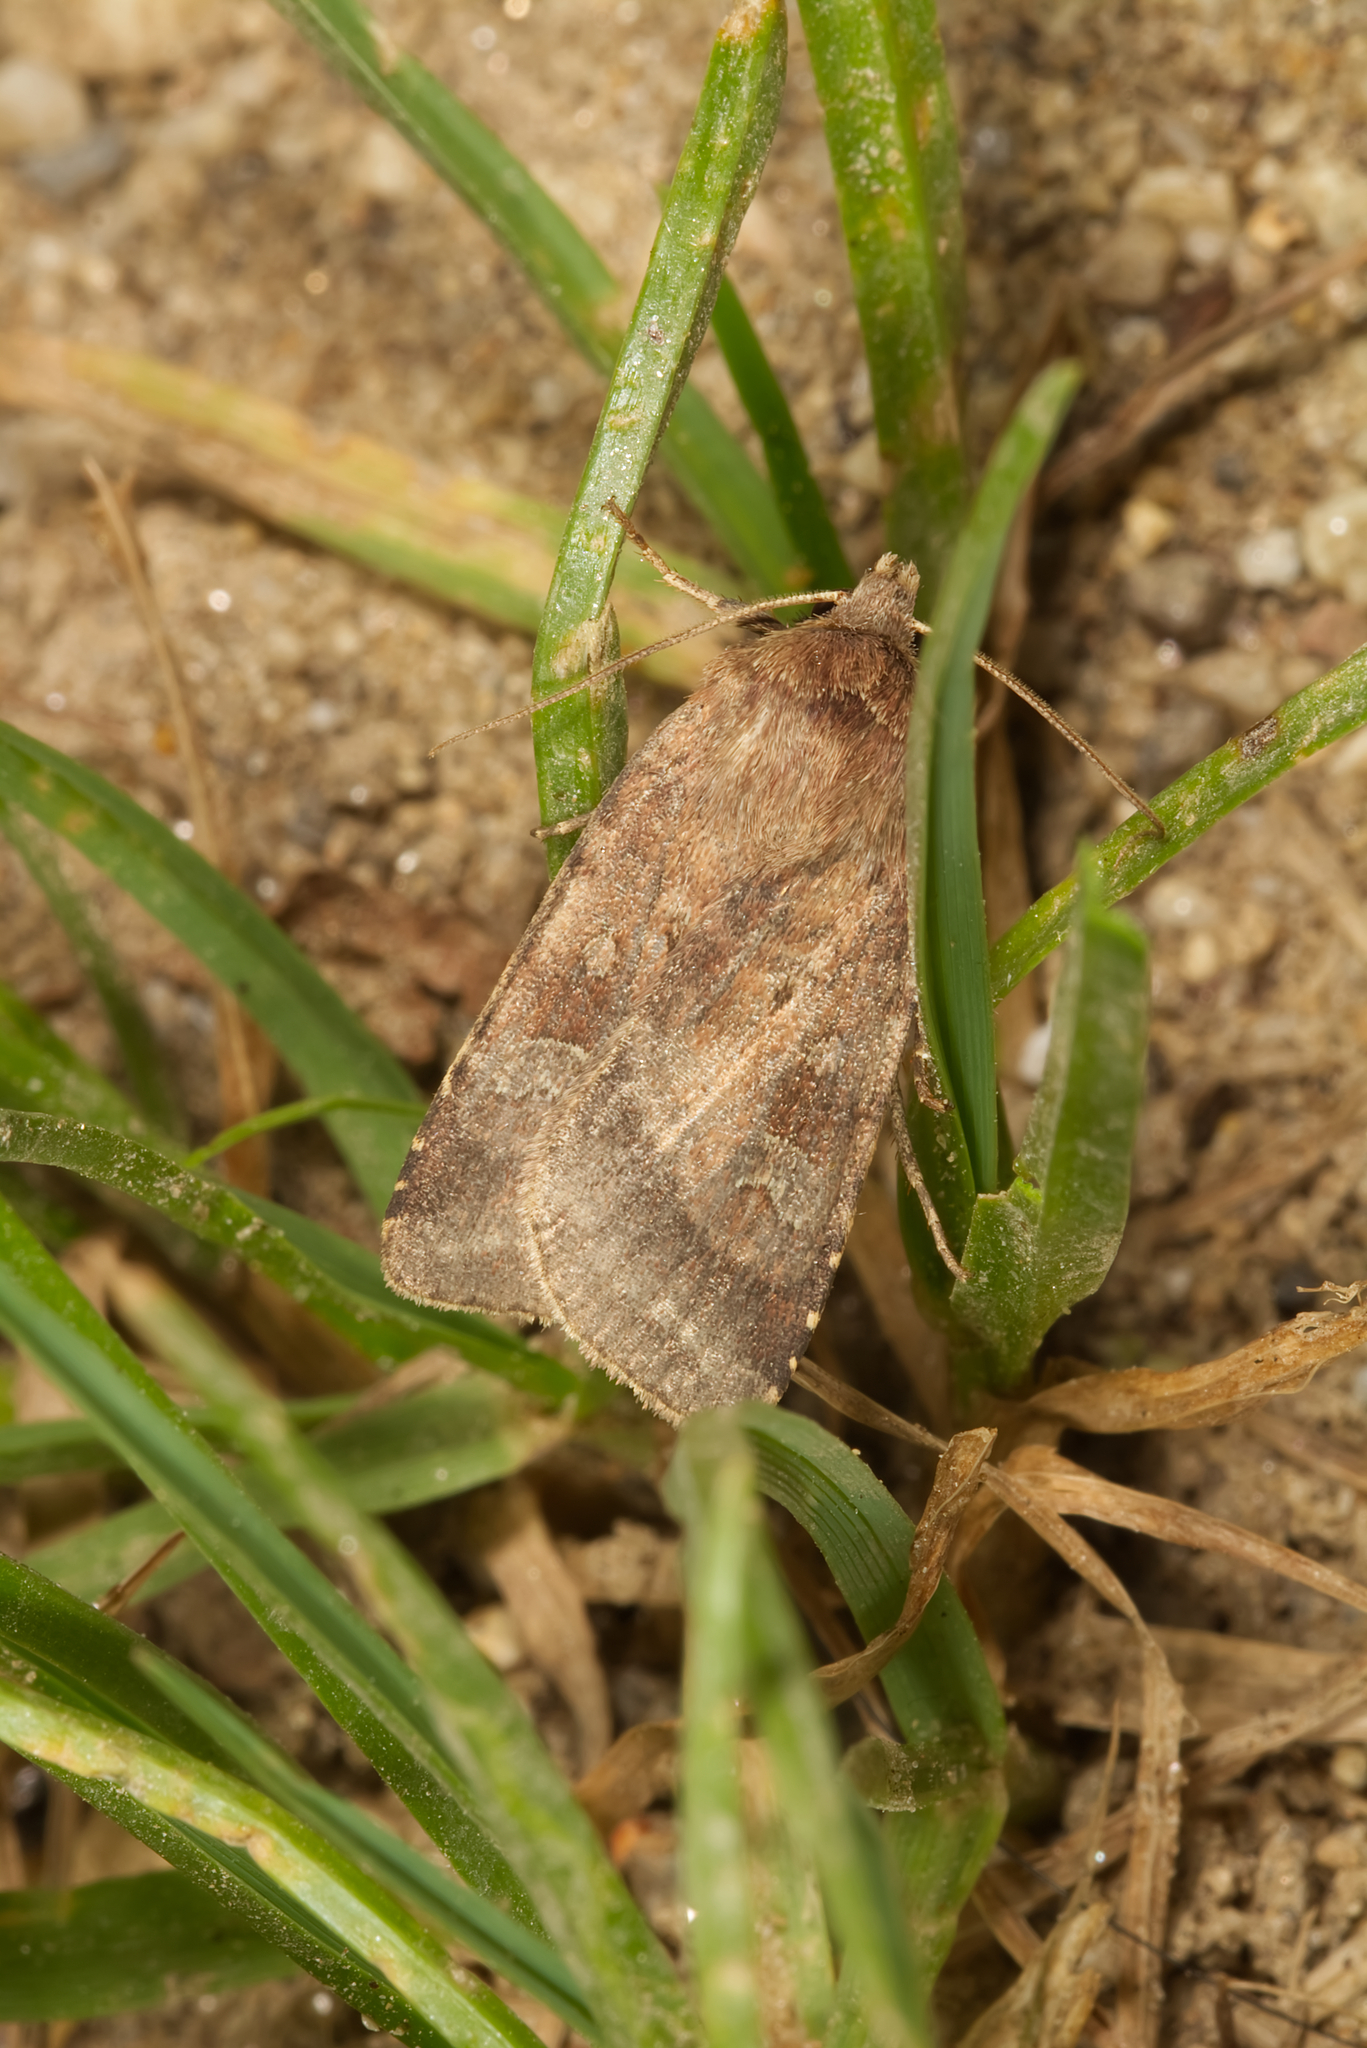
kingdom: Animalia
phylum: Arthropoda
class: Insecta
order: Lepidoptera
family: Noctuidae
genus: Diarsia
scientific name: Diarsia rubi
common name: Small square-spot
